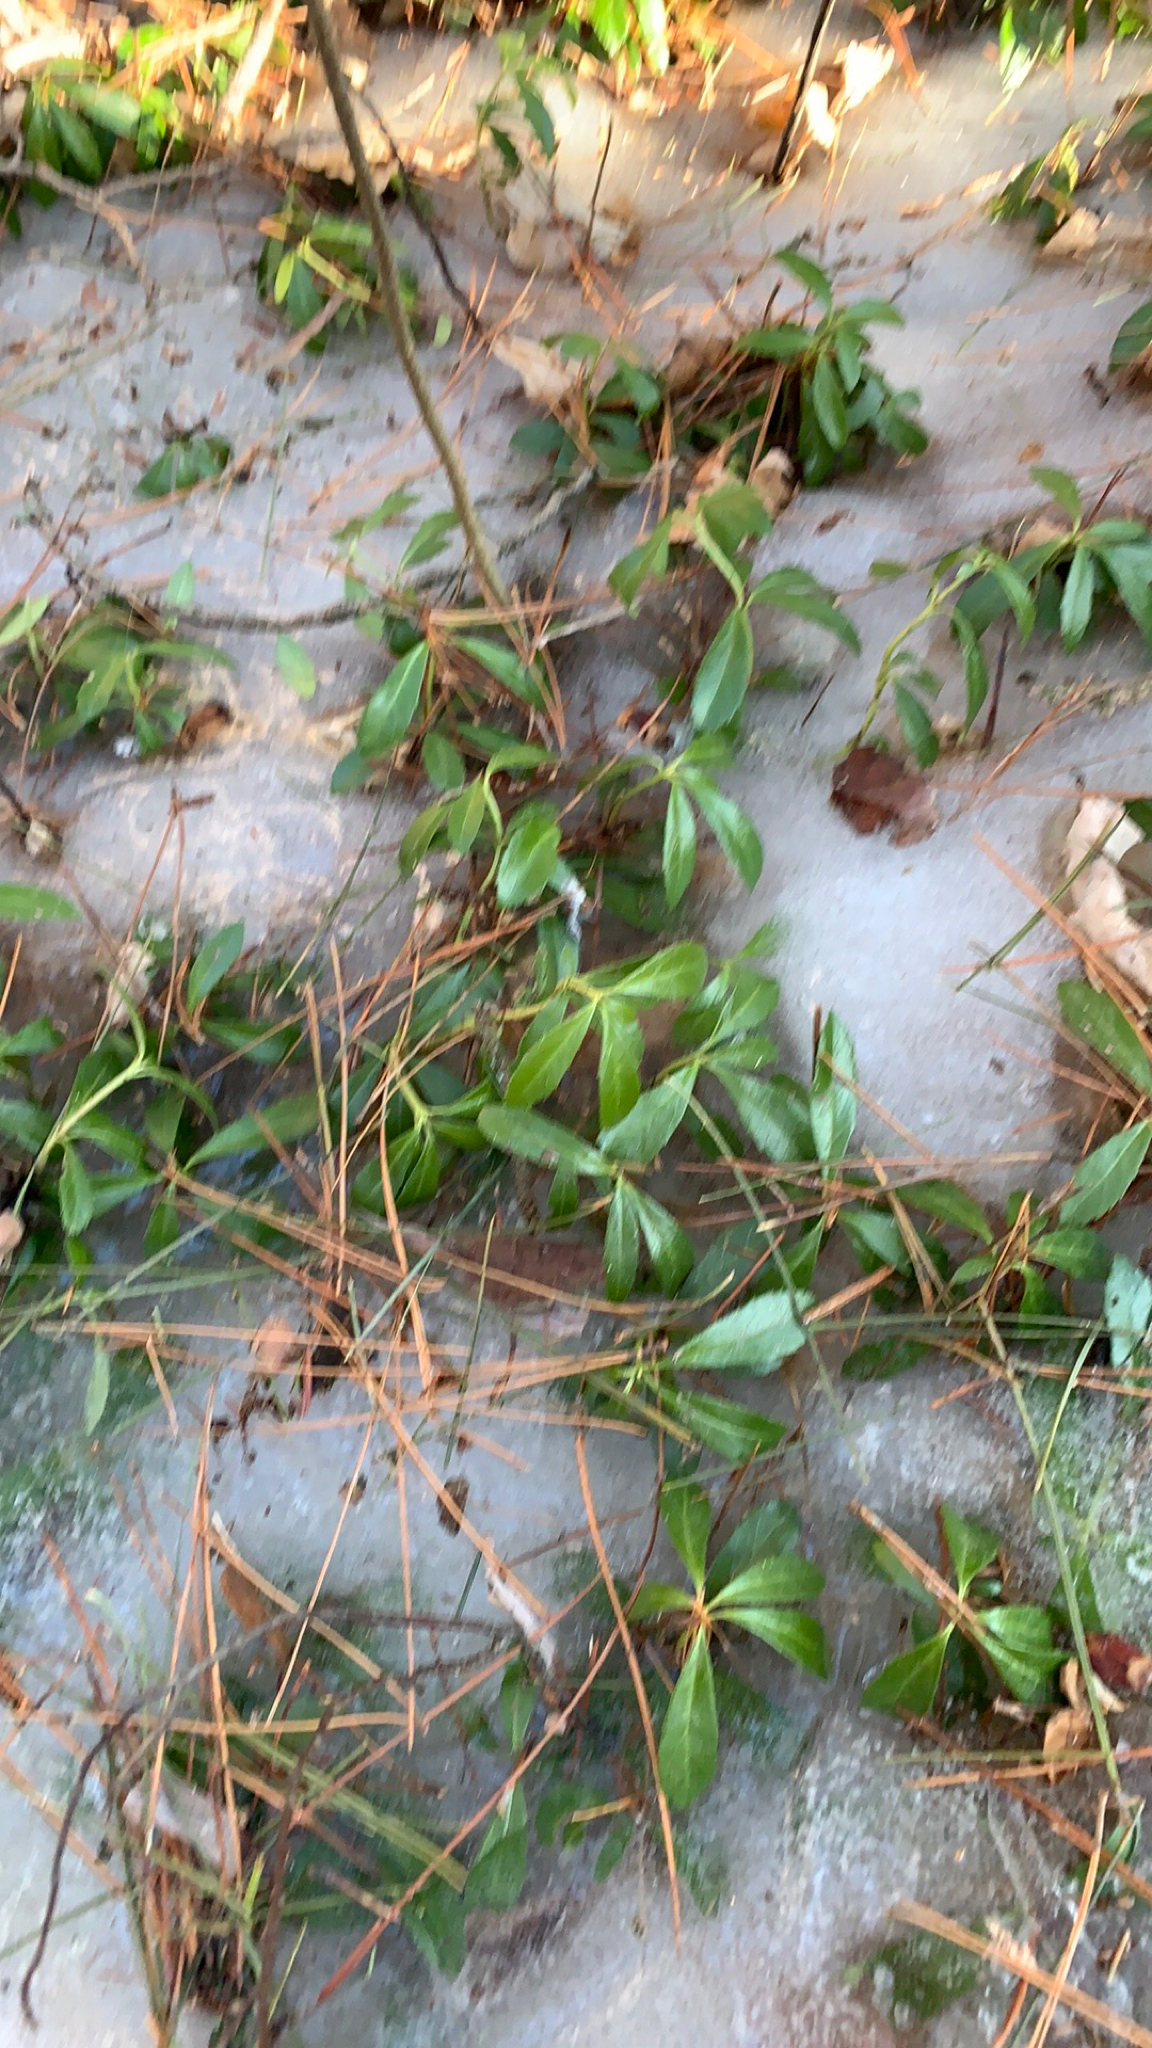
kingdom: Plantae
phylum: Tracheophyta
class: Magnoliopsida
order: Ericales
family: Ericaceae
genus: Chimaphila
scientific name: Chimaphila umbellata
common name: Pipsissewa
